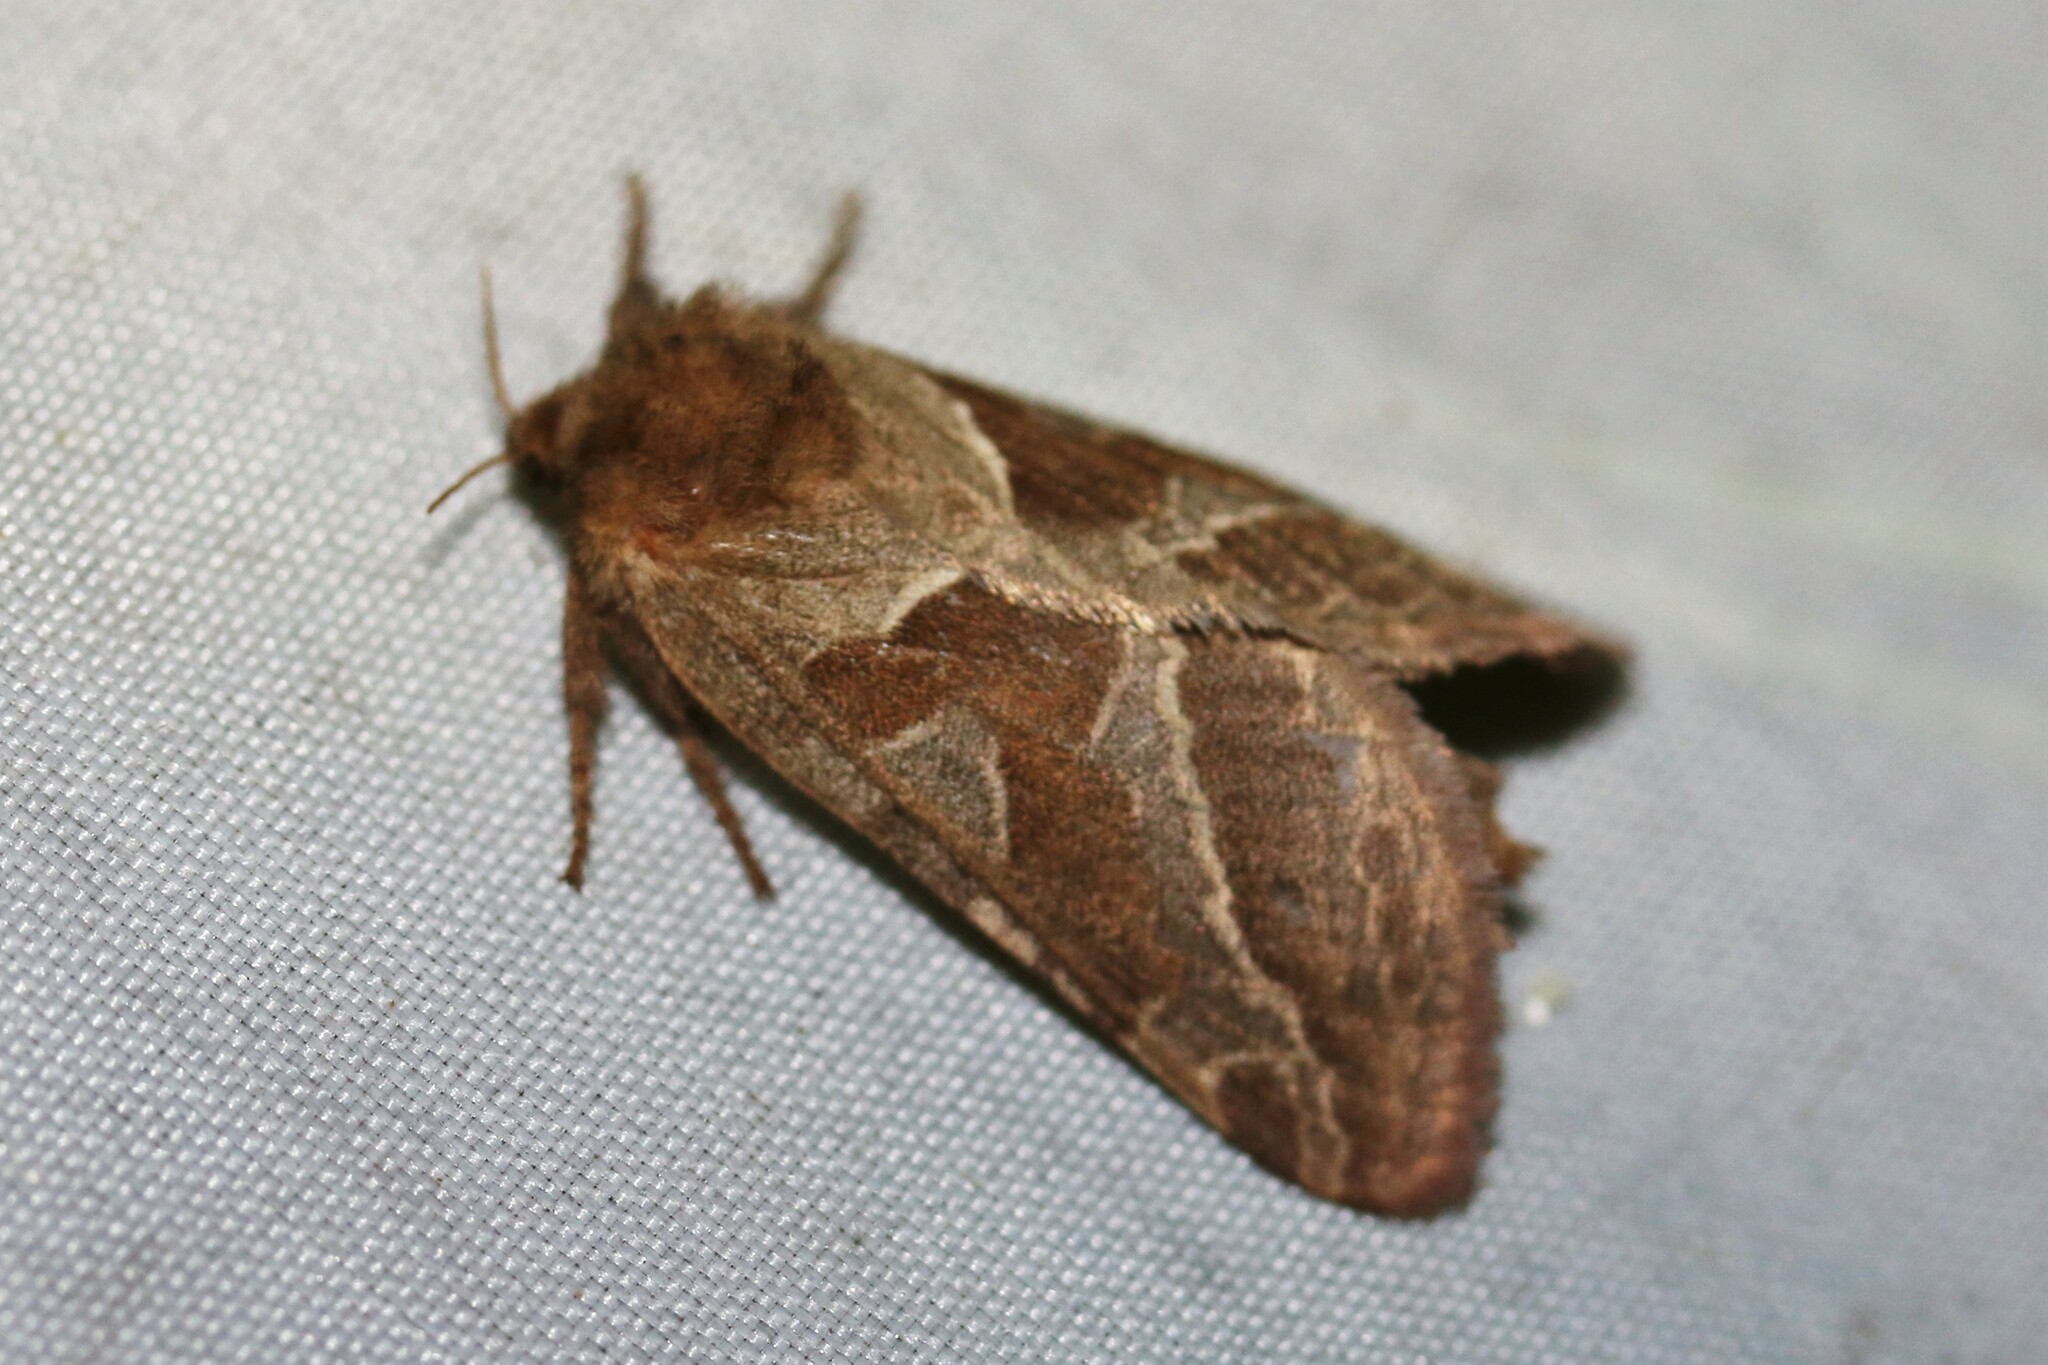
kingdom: Animalia
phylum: Arthropoda
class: Insecta
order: Lepidoptera
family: Hepialidae
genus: Triodia
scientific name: Triodia sylvina
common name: Orange swift
